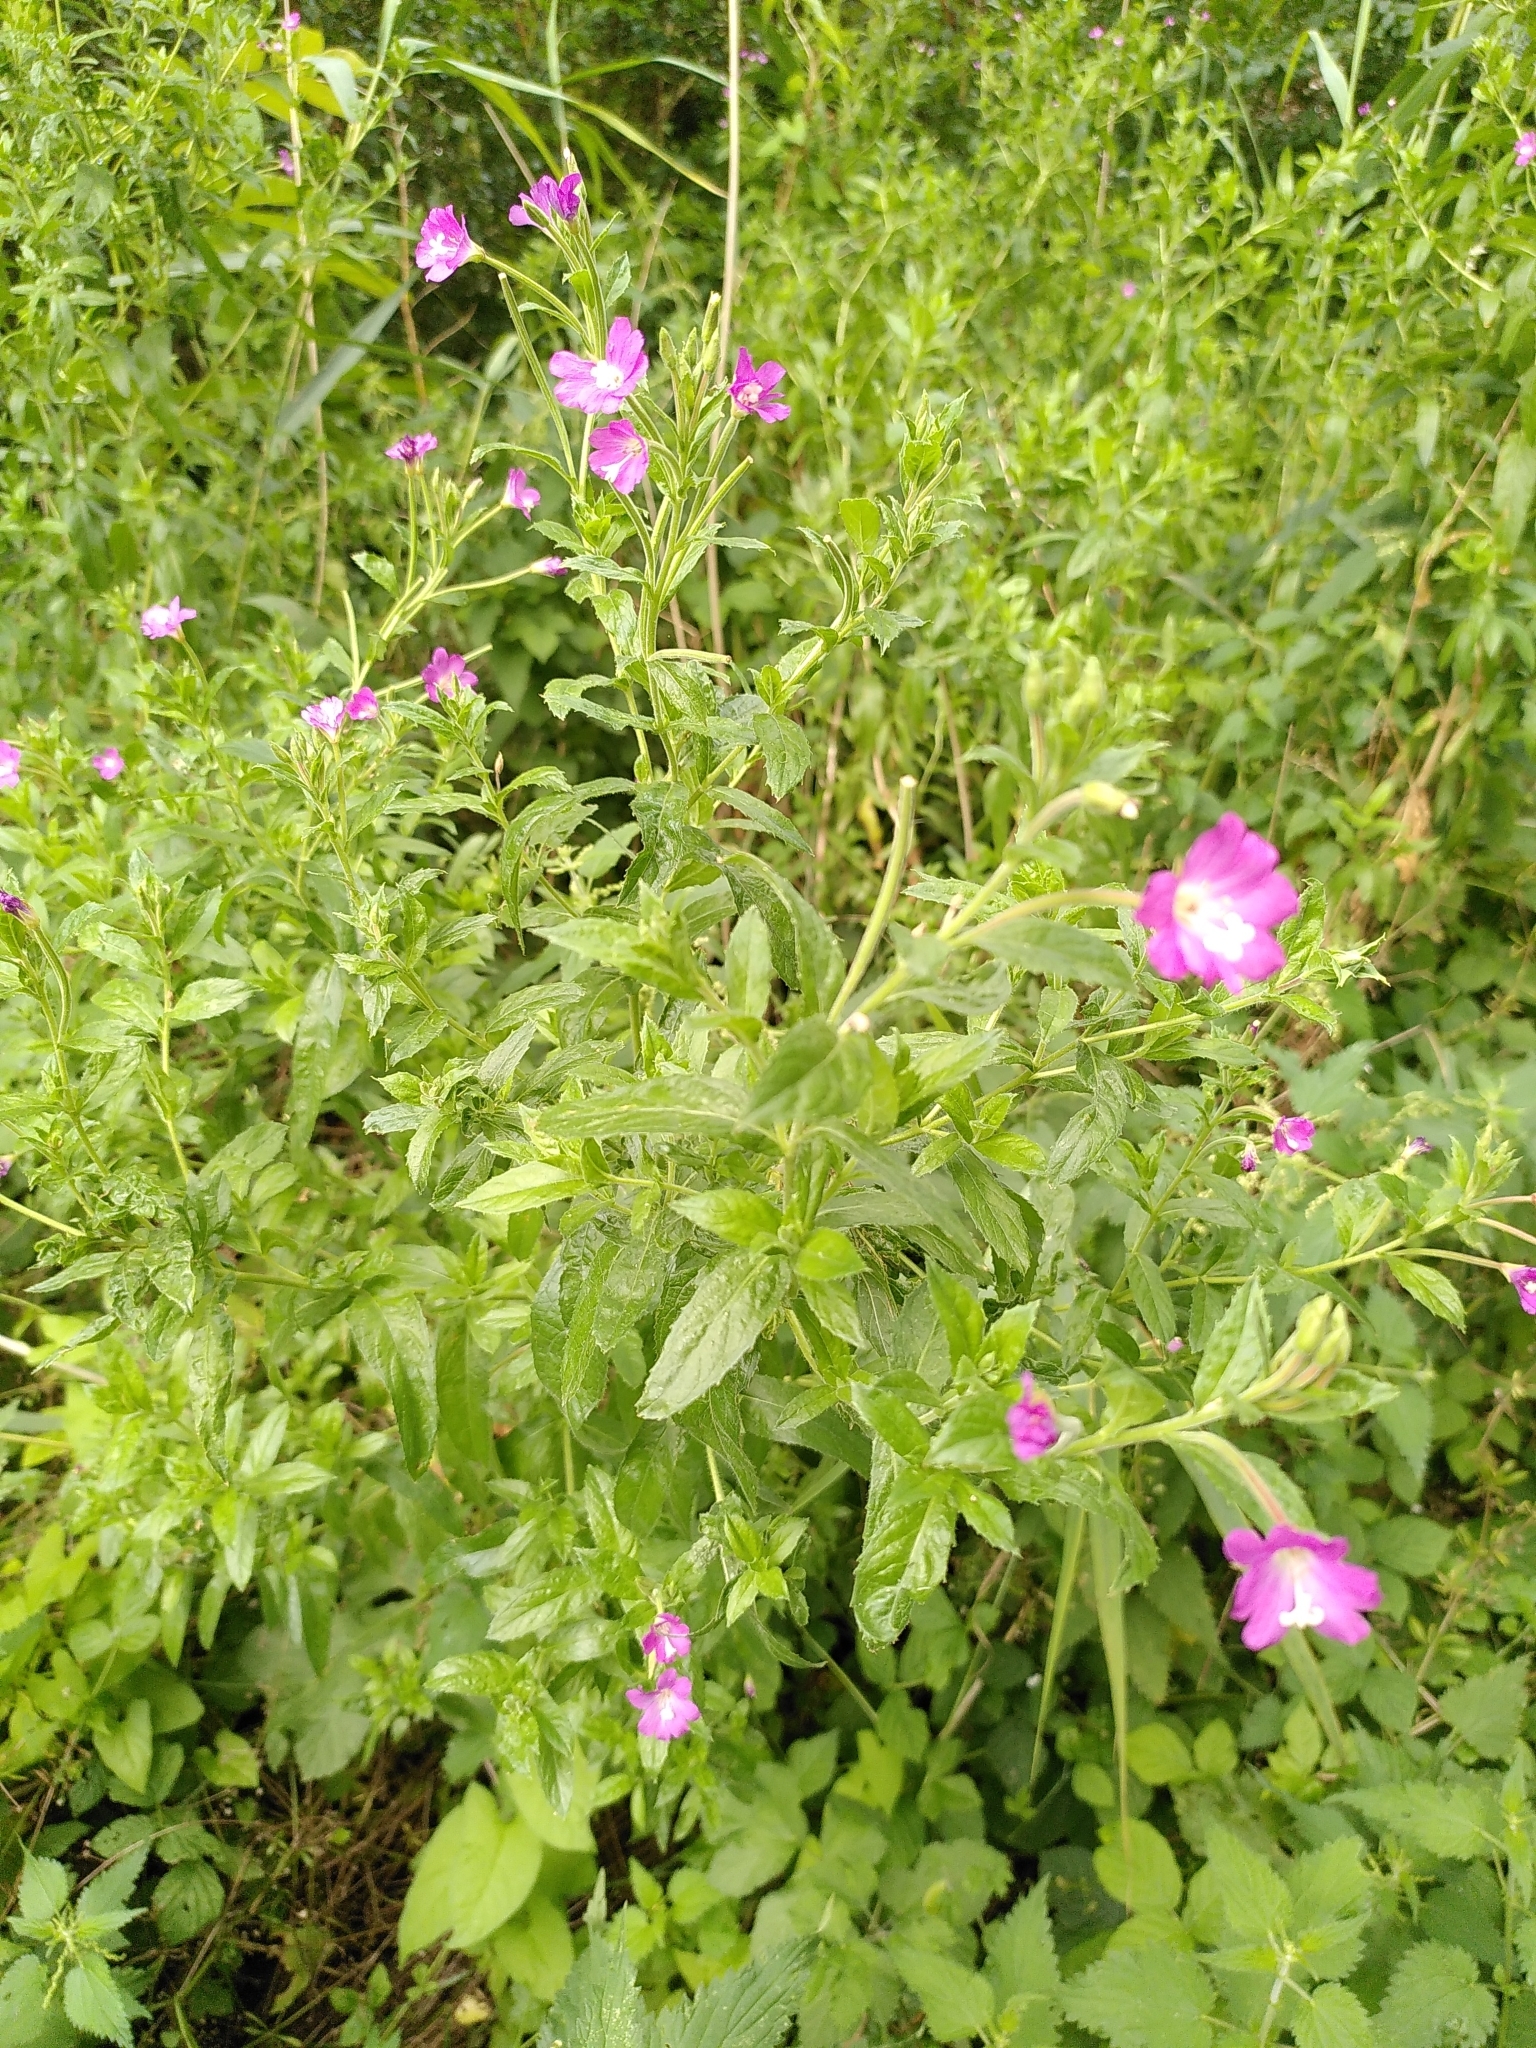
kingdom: Plantae
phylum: Tracheophyta
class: Magnoliopsida
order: Myrtales
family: Onagraceae
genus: Epilobium
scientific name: Epilobium hirsutum
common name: Great willowherb
